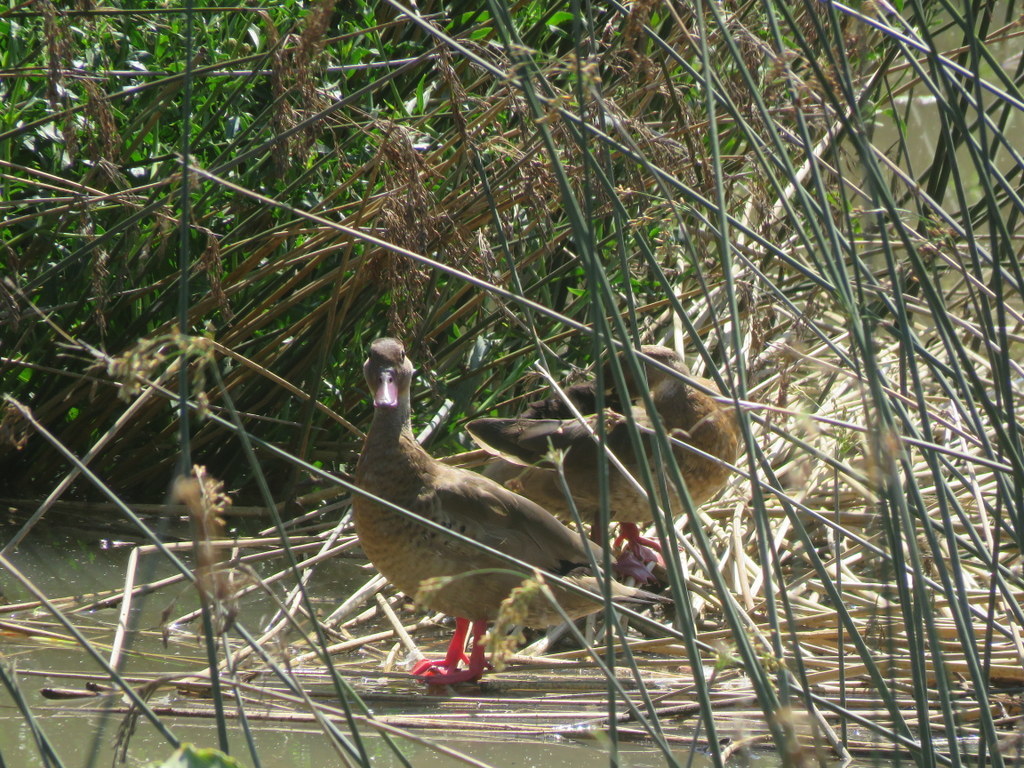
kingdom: Animalia
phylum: Chordata
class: Aves
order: Anseriformes
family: Anatidae
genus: Amazonetta
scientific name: Amazonetta brasiliensis
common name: Brazilian teal
